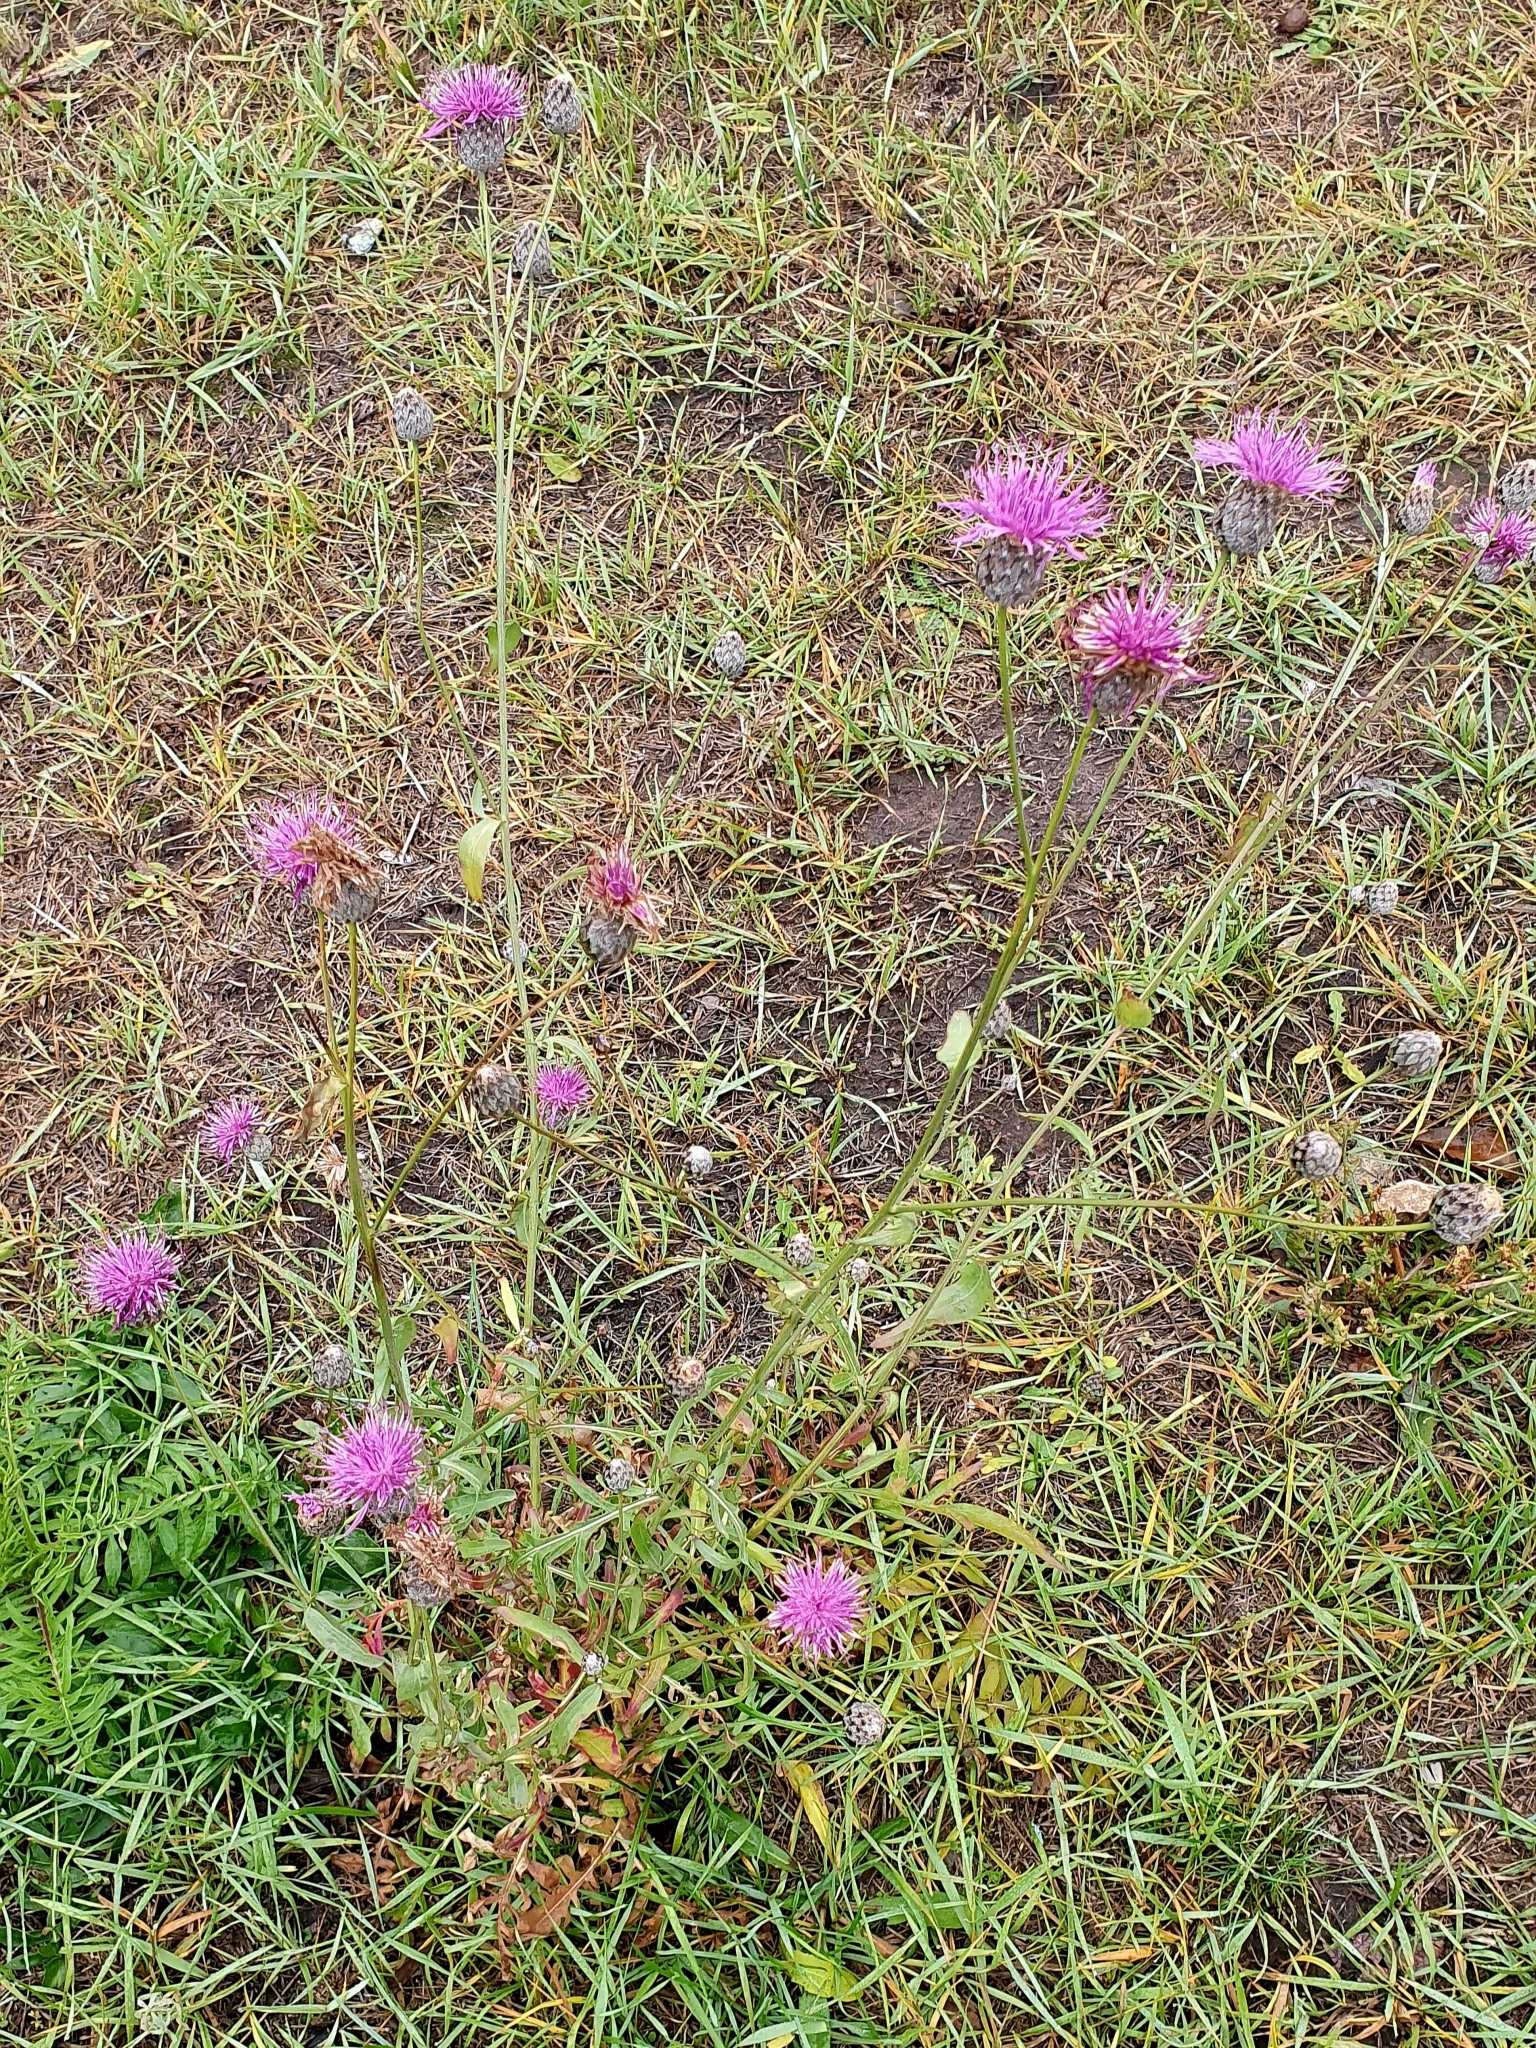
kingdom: Plantae
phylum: Tracheophyta
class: Magnoliopsida
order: Asterales
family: Asteraceae
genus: Centaurea
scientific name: Centaurea scabiosa
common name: Greater knapweed
